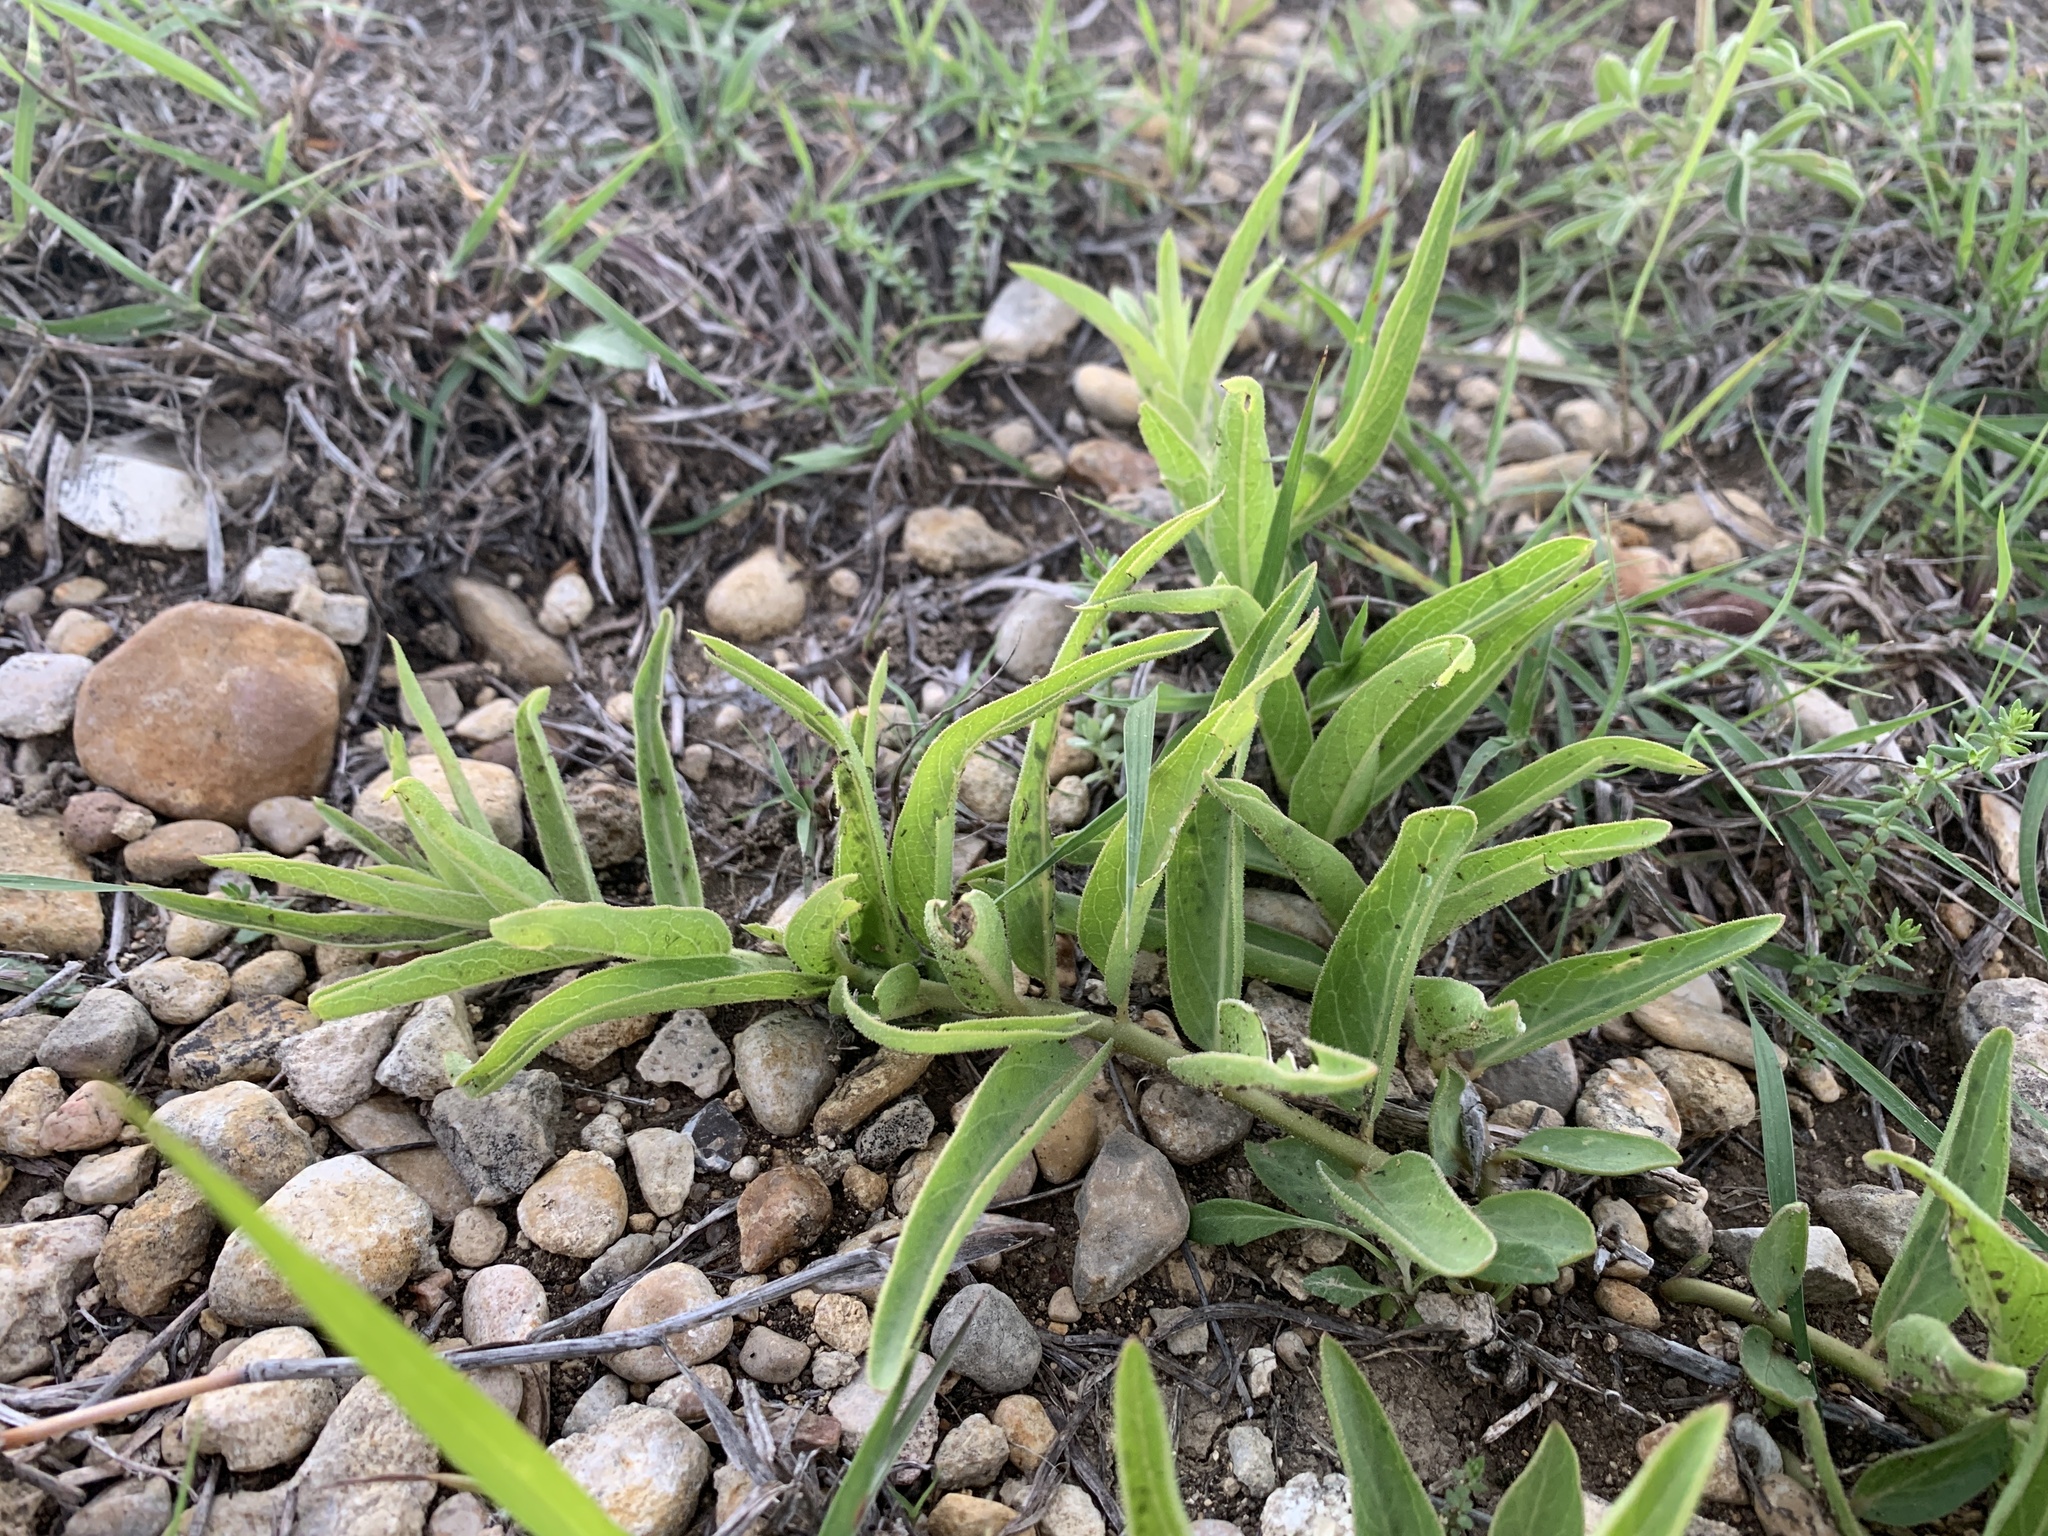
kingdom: Plantae
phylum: Tracheophyta
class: Magnoliopsida
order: Gentianales
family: Apocynaceae
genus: Asclepias
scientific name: Asclepias asperula
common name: Antelope horns
